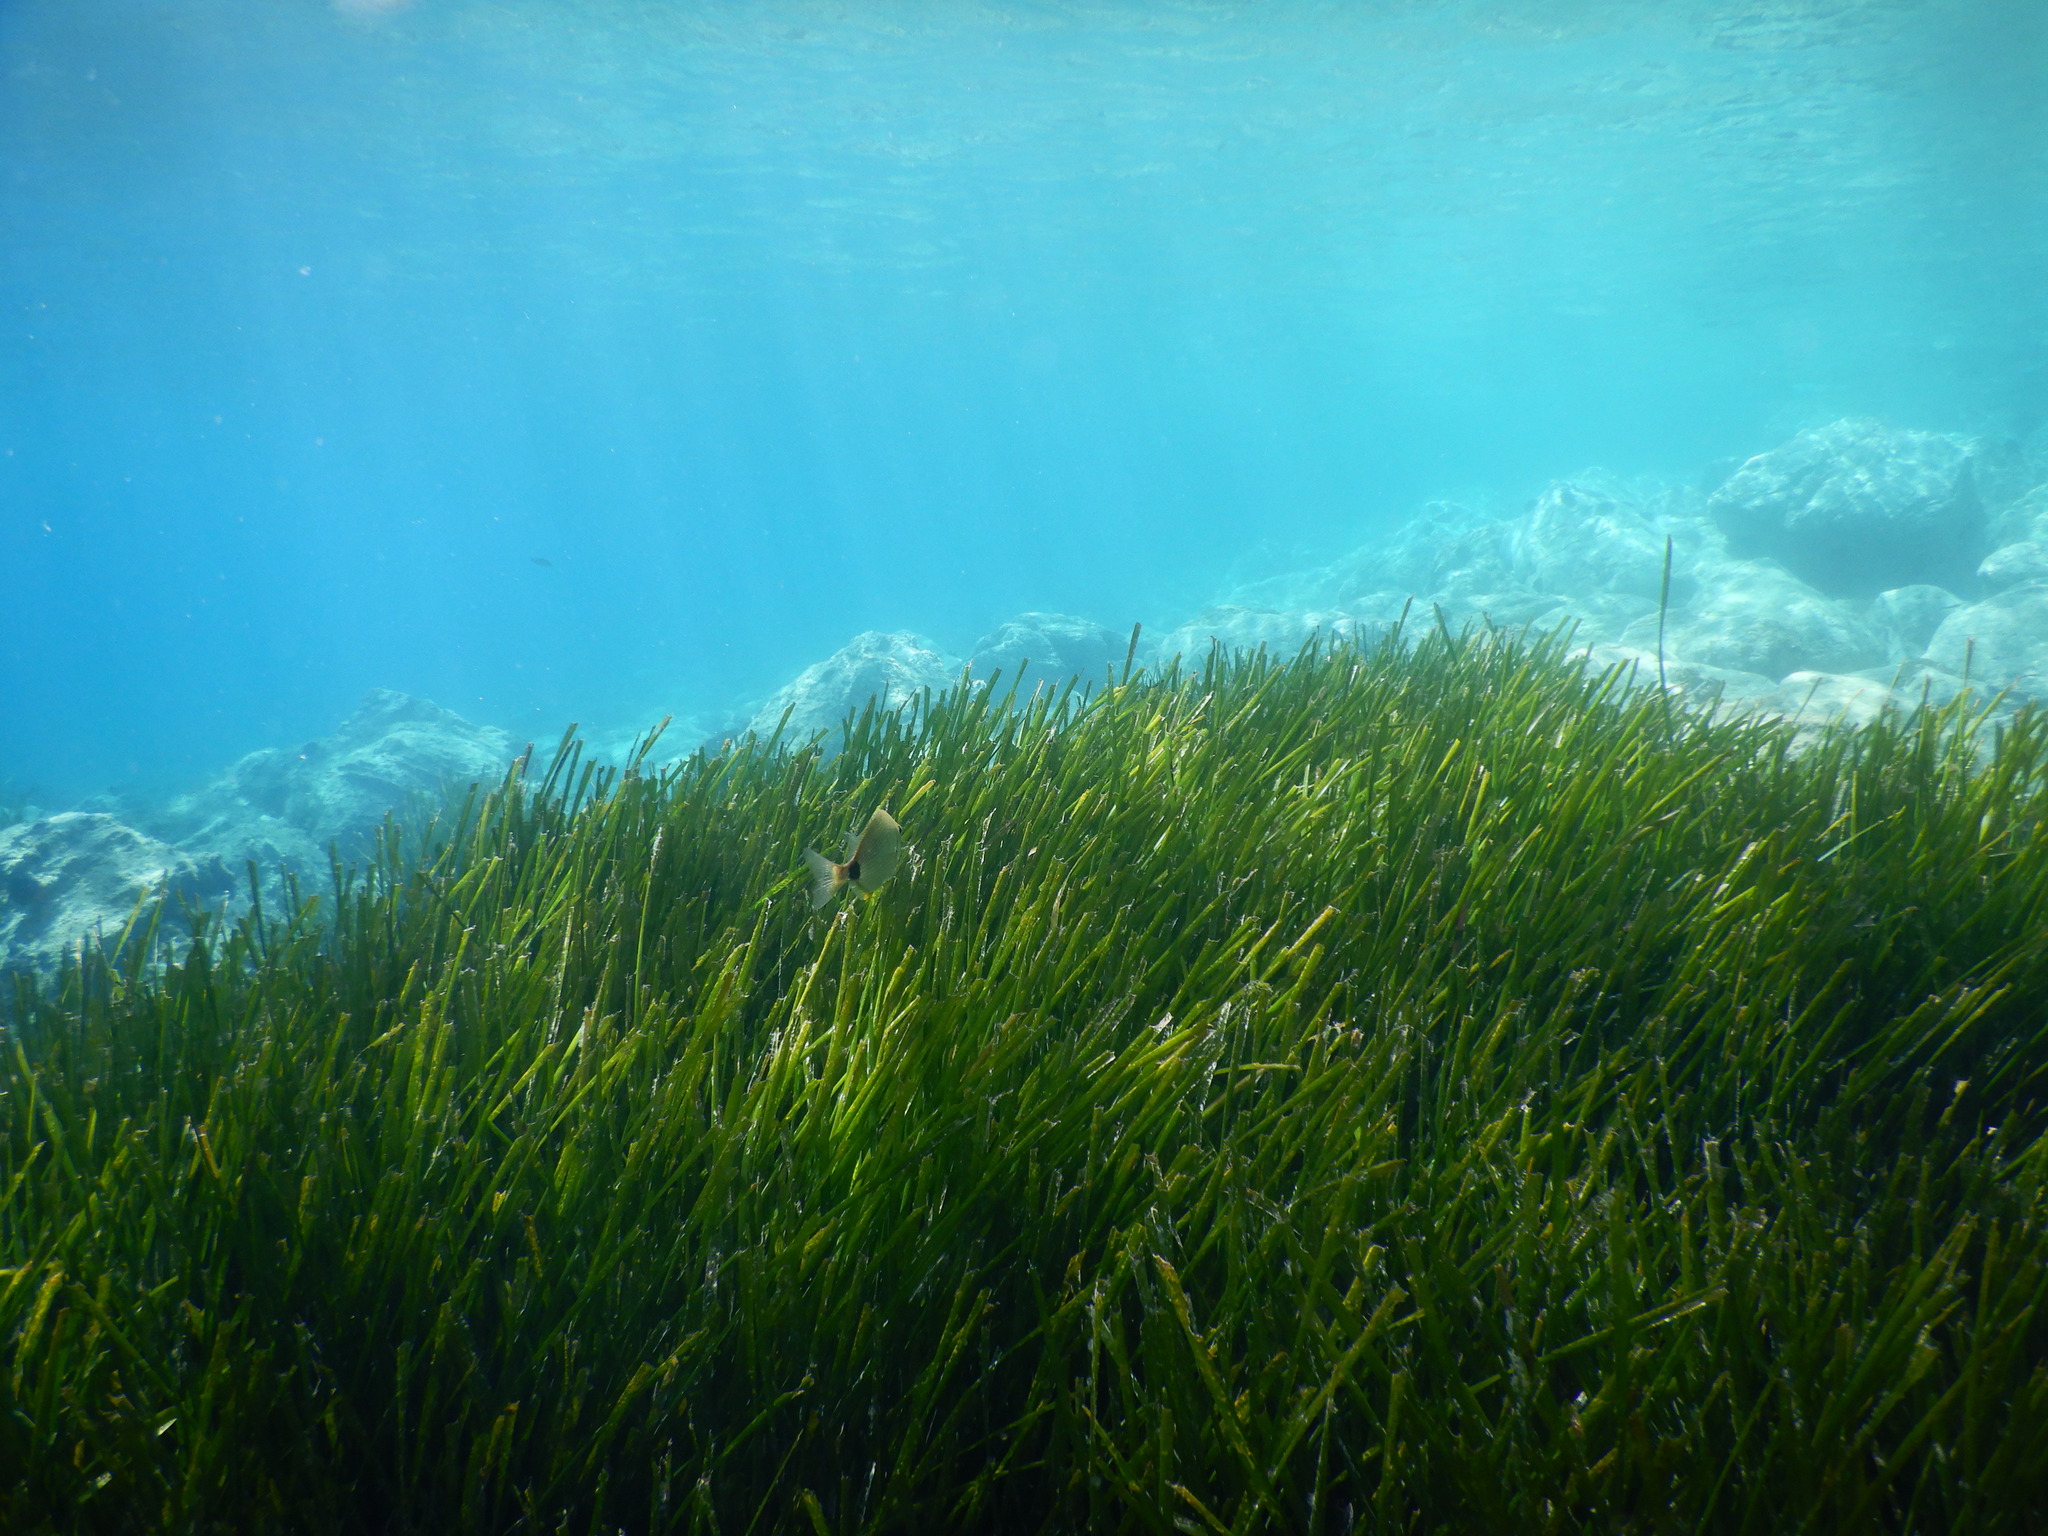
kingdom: Animalia
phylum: Chordata
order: Perciformes
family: Sparidae
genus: Diplodus
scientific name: Diplodus annularis
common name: Annular seabream
